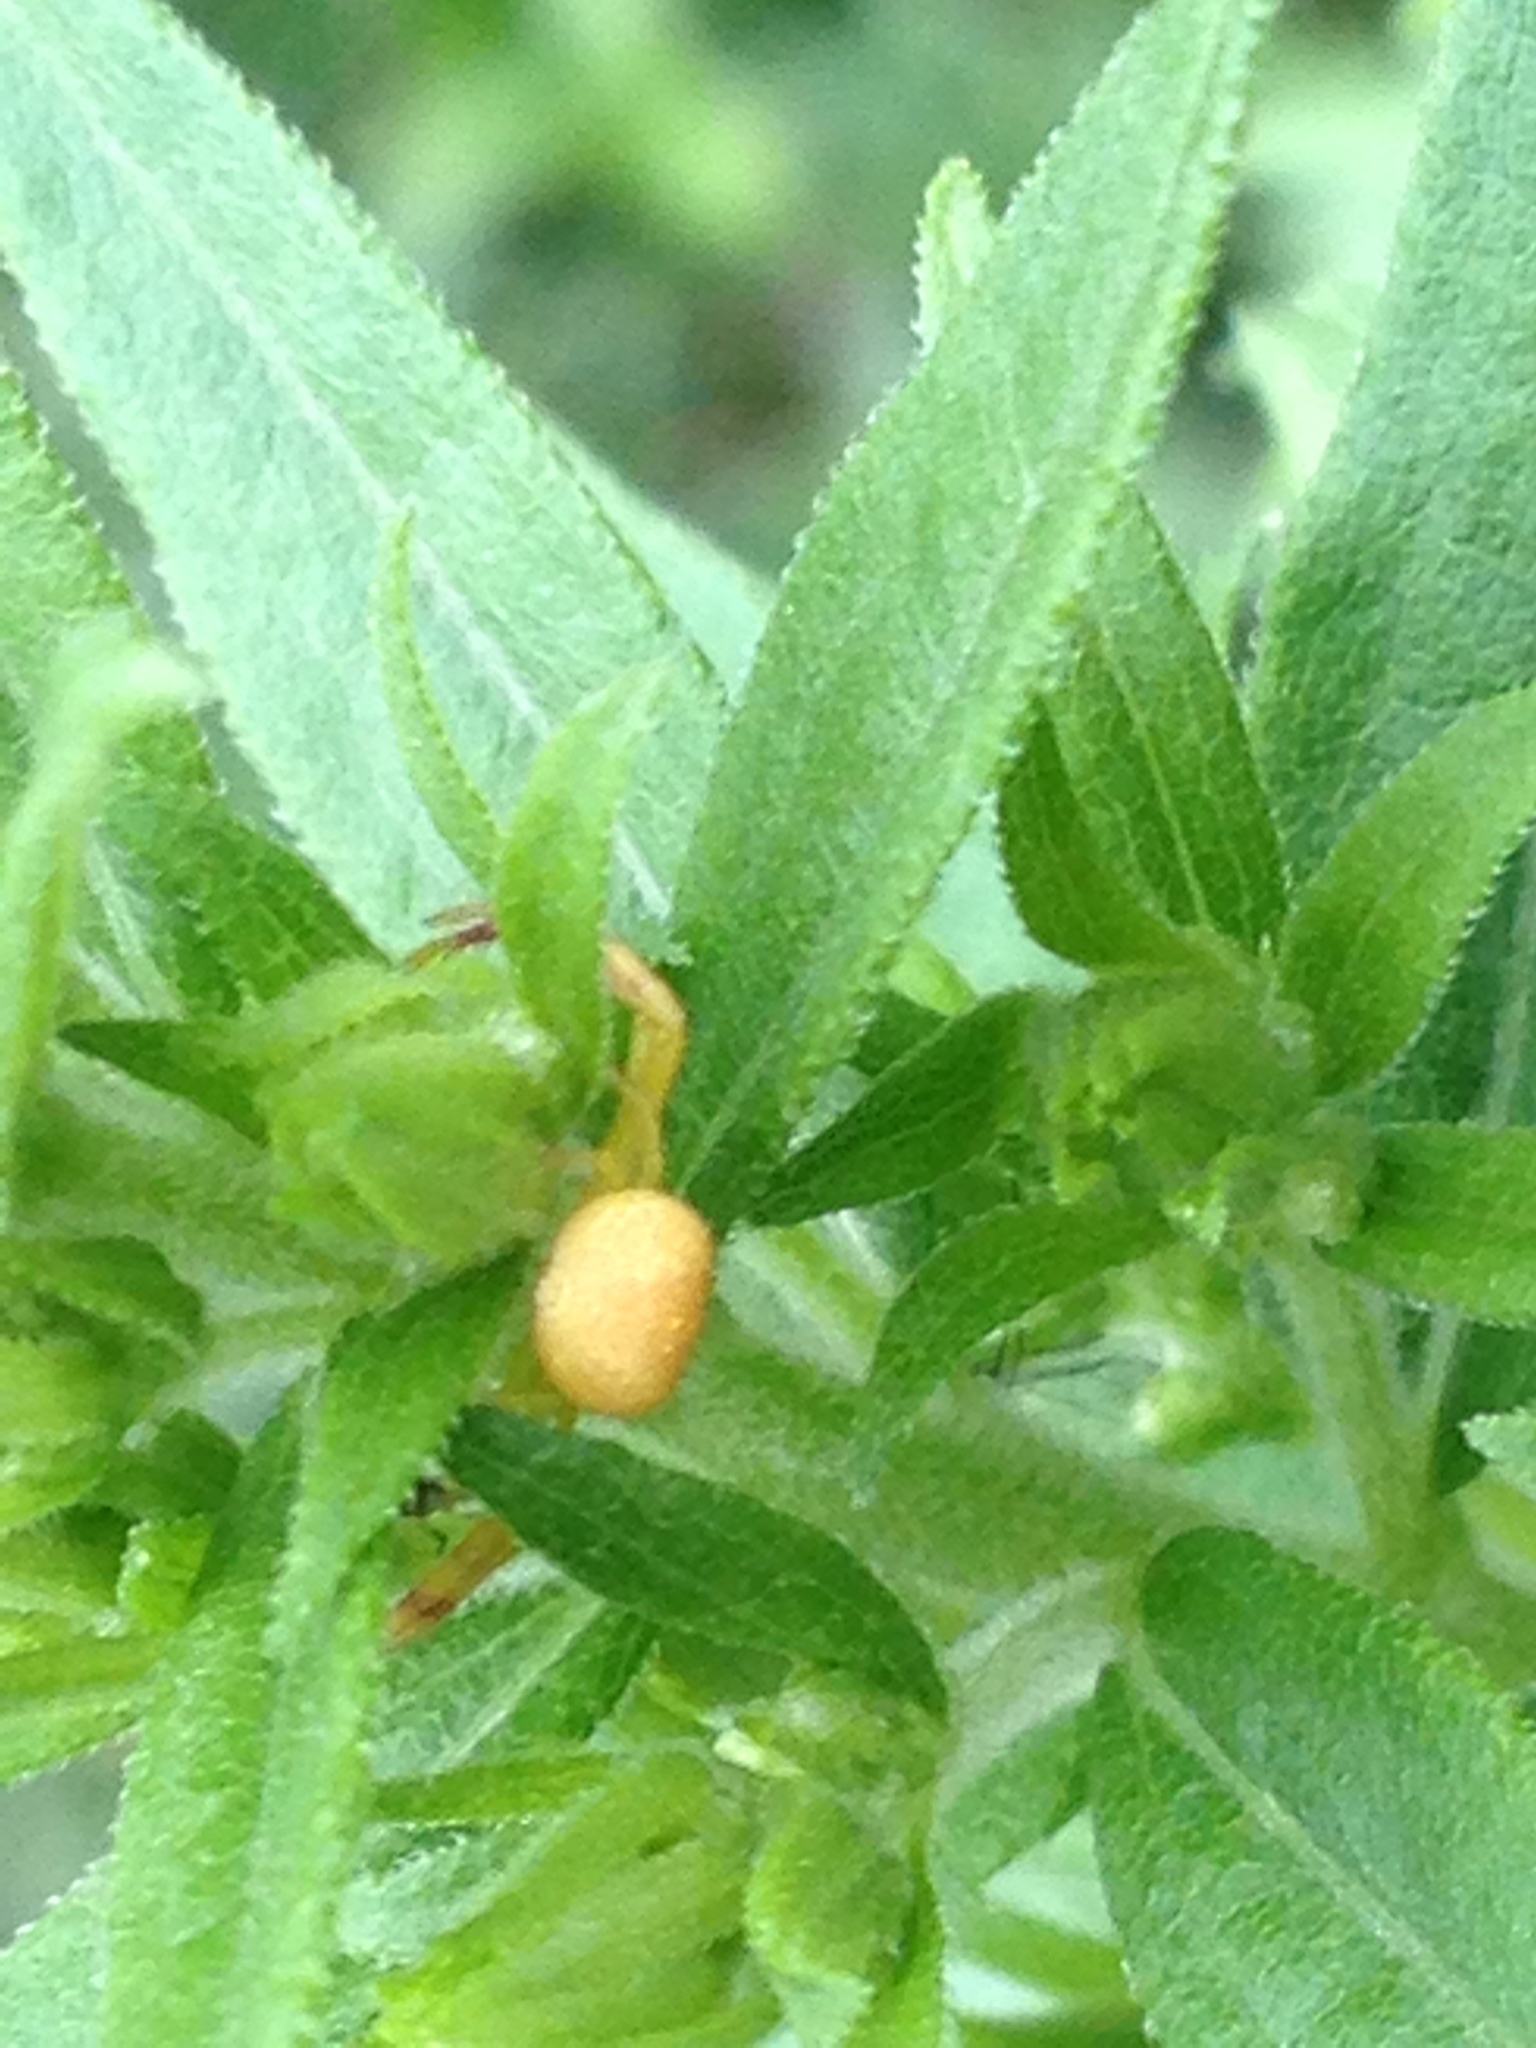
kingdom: Animalia
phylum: Arthropoda
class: Arachnida
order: Araneae
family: Thomisidae
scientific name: Thomisidae
